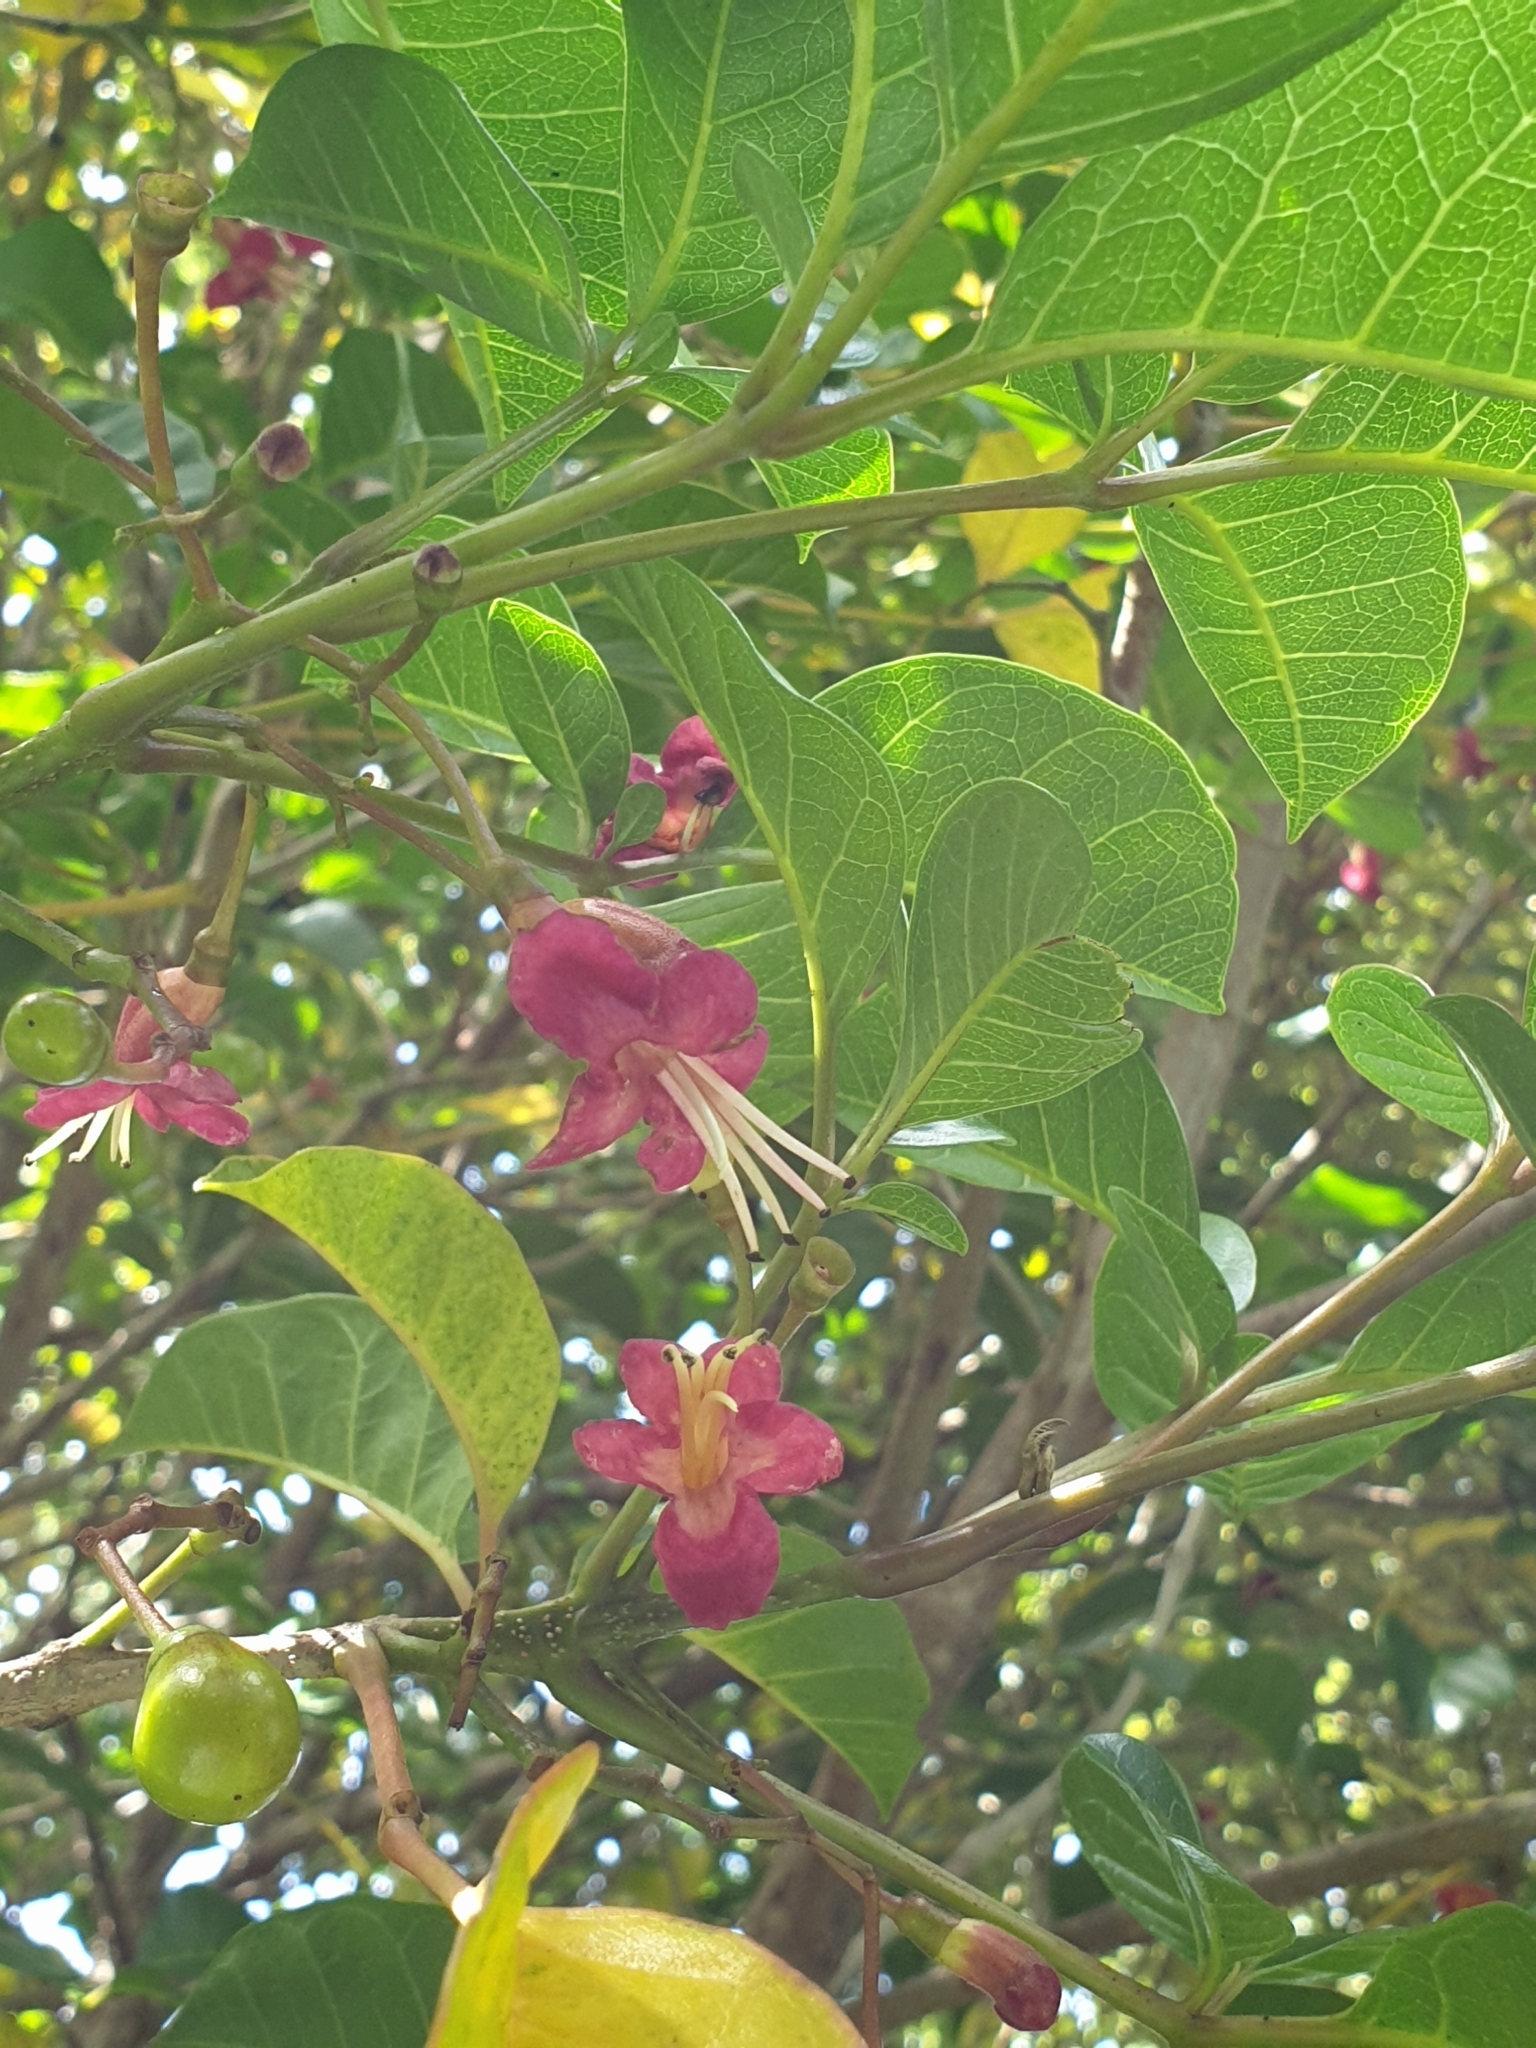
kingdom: Plantae
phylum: Tracheophyta
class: Magnoliopsida
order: Lamiales
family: Lamiaceae
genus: Vitex
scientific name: Vitex lucens
